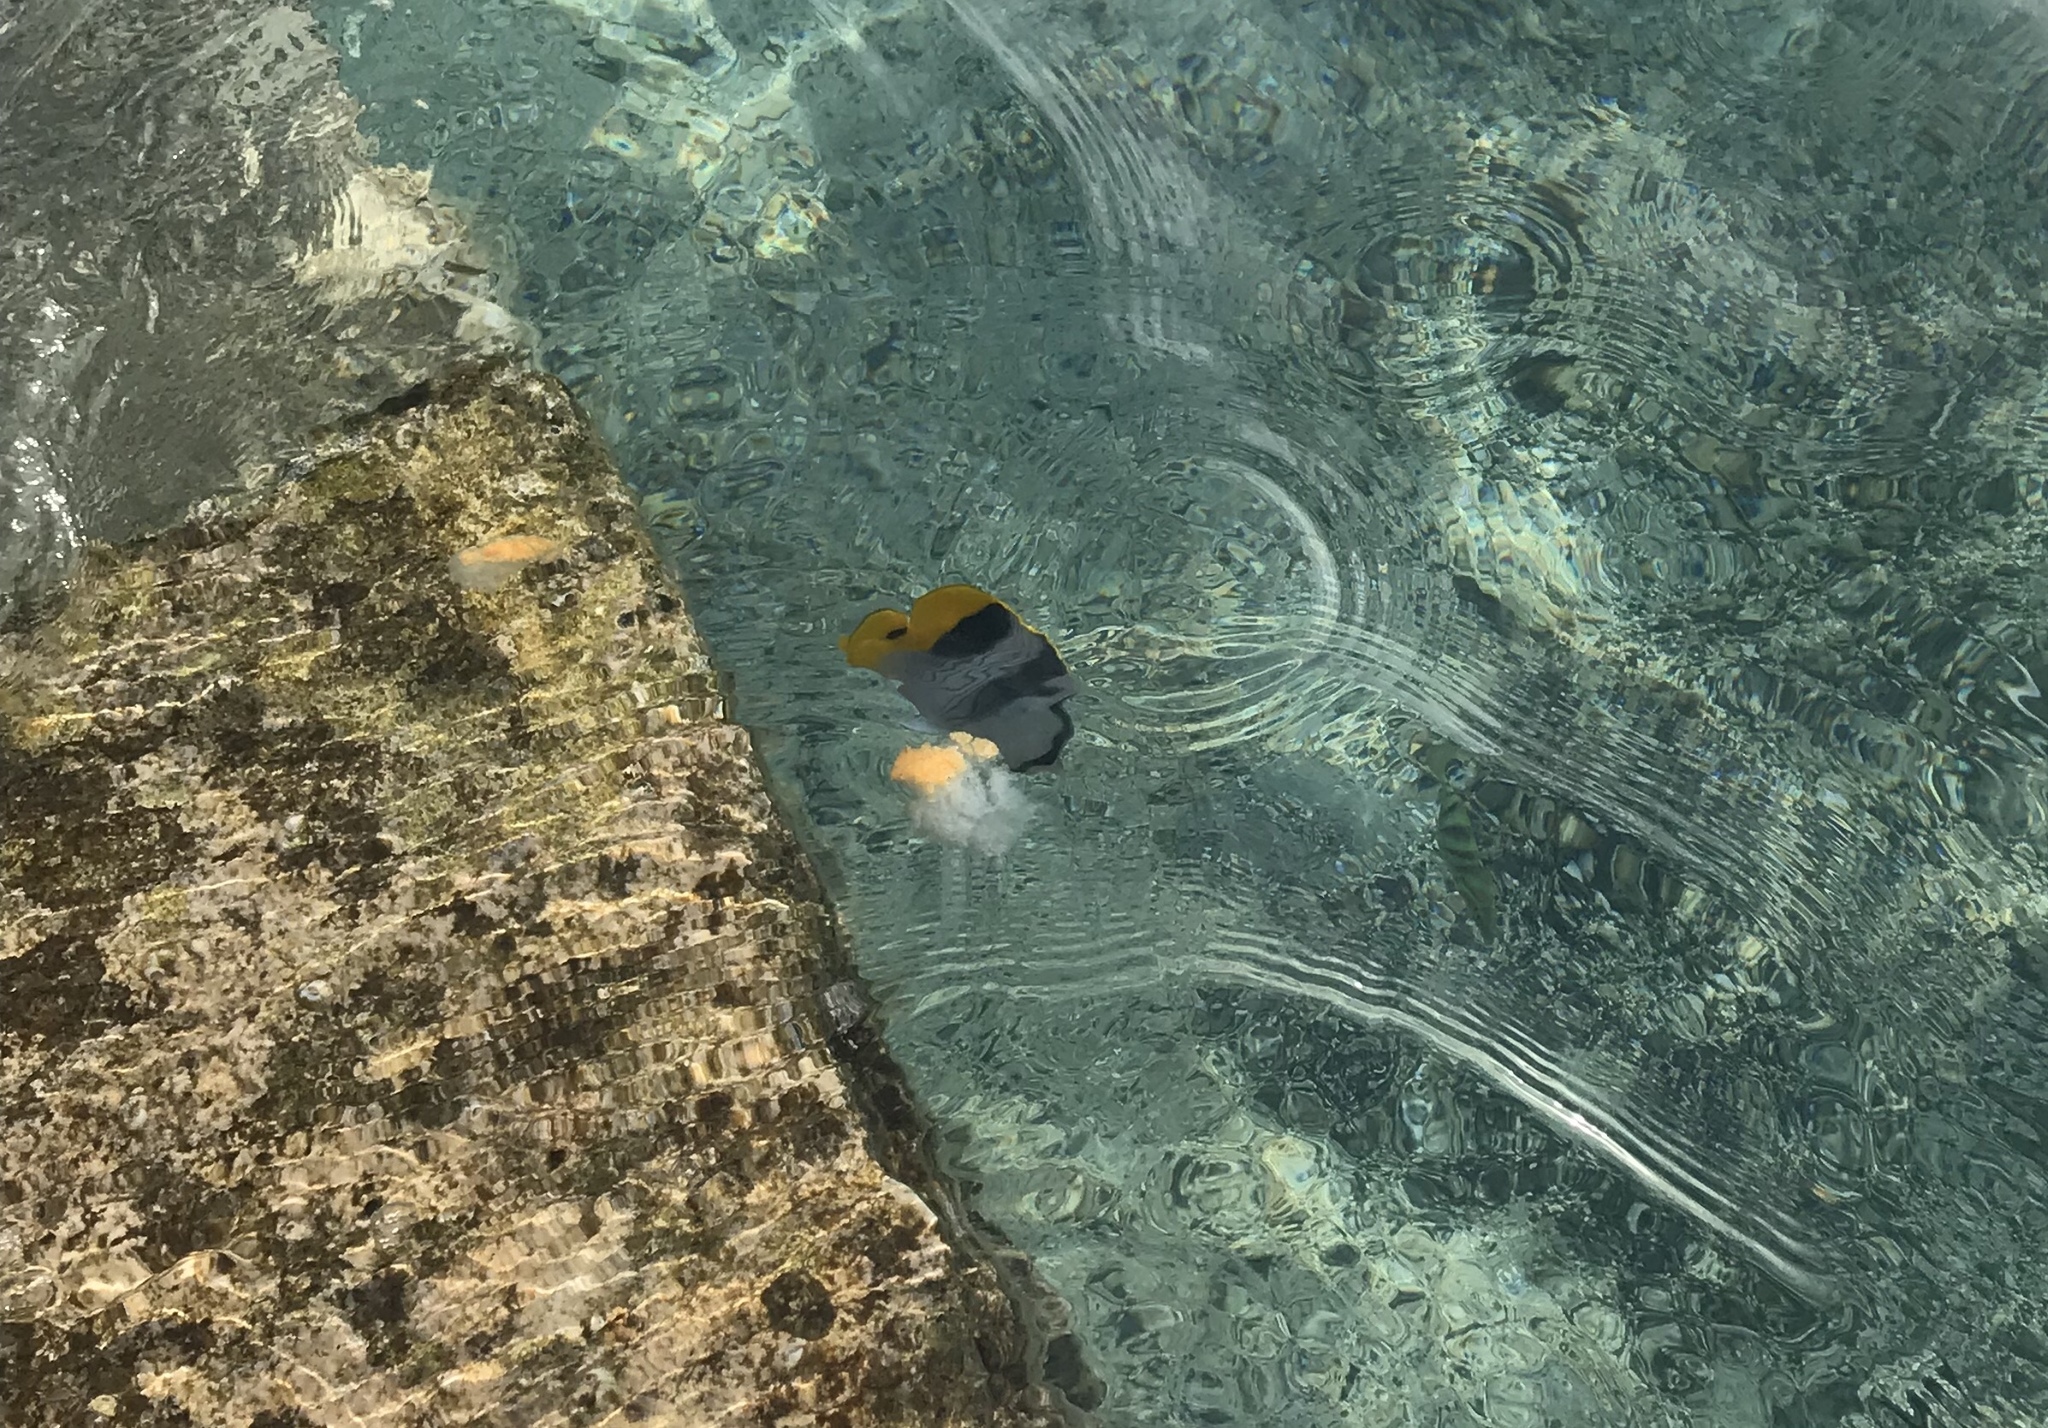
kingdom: Animalia
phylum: Chordata
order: Perciformes
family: Chaetodontidae
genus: Chaetodon
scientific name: Chaetodon ulietensis
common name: Pacific double-saddle butterflyfish
